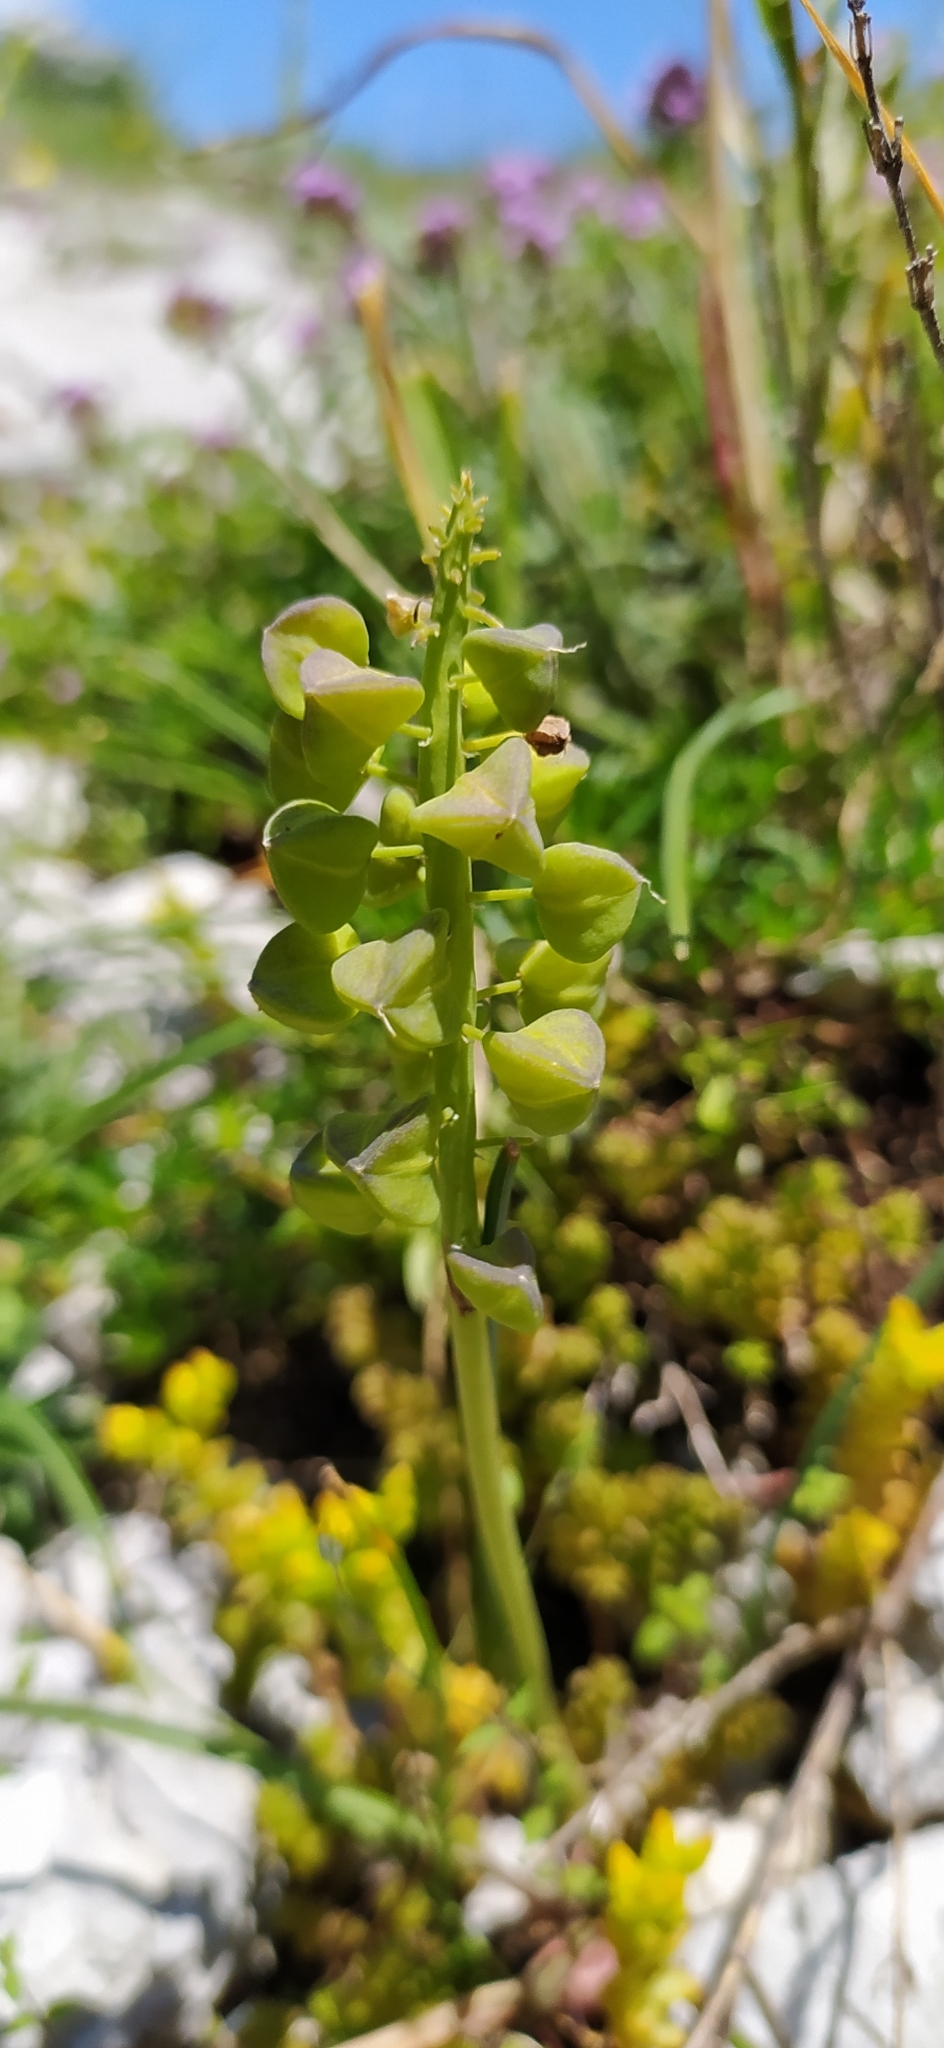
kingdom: Plantae
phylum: Tracheophyta
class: Liliopsida
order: Asparagales
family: Asparagaceae
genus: Muscari
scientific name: Muscari neglectum
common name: Grape-hyacinth
